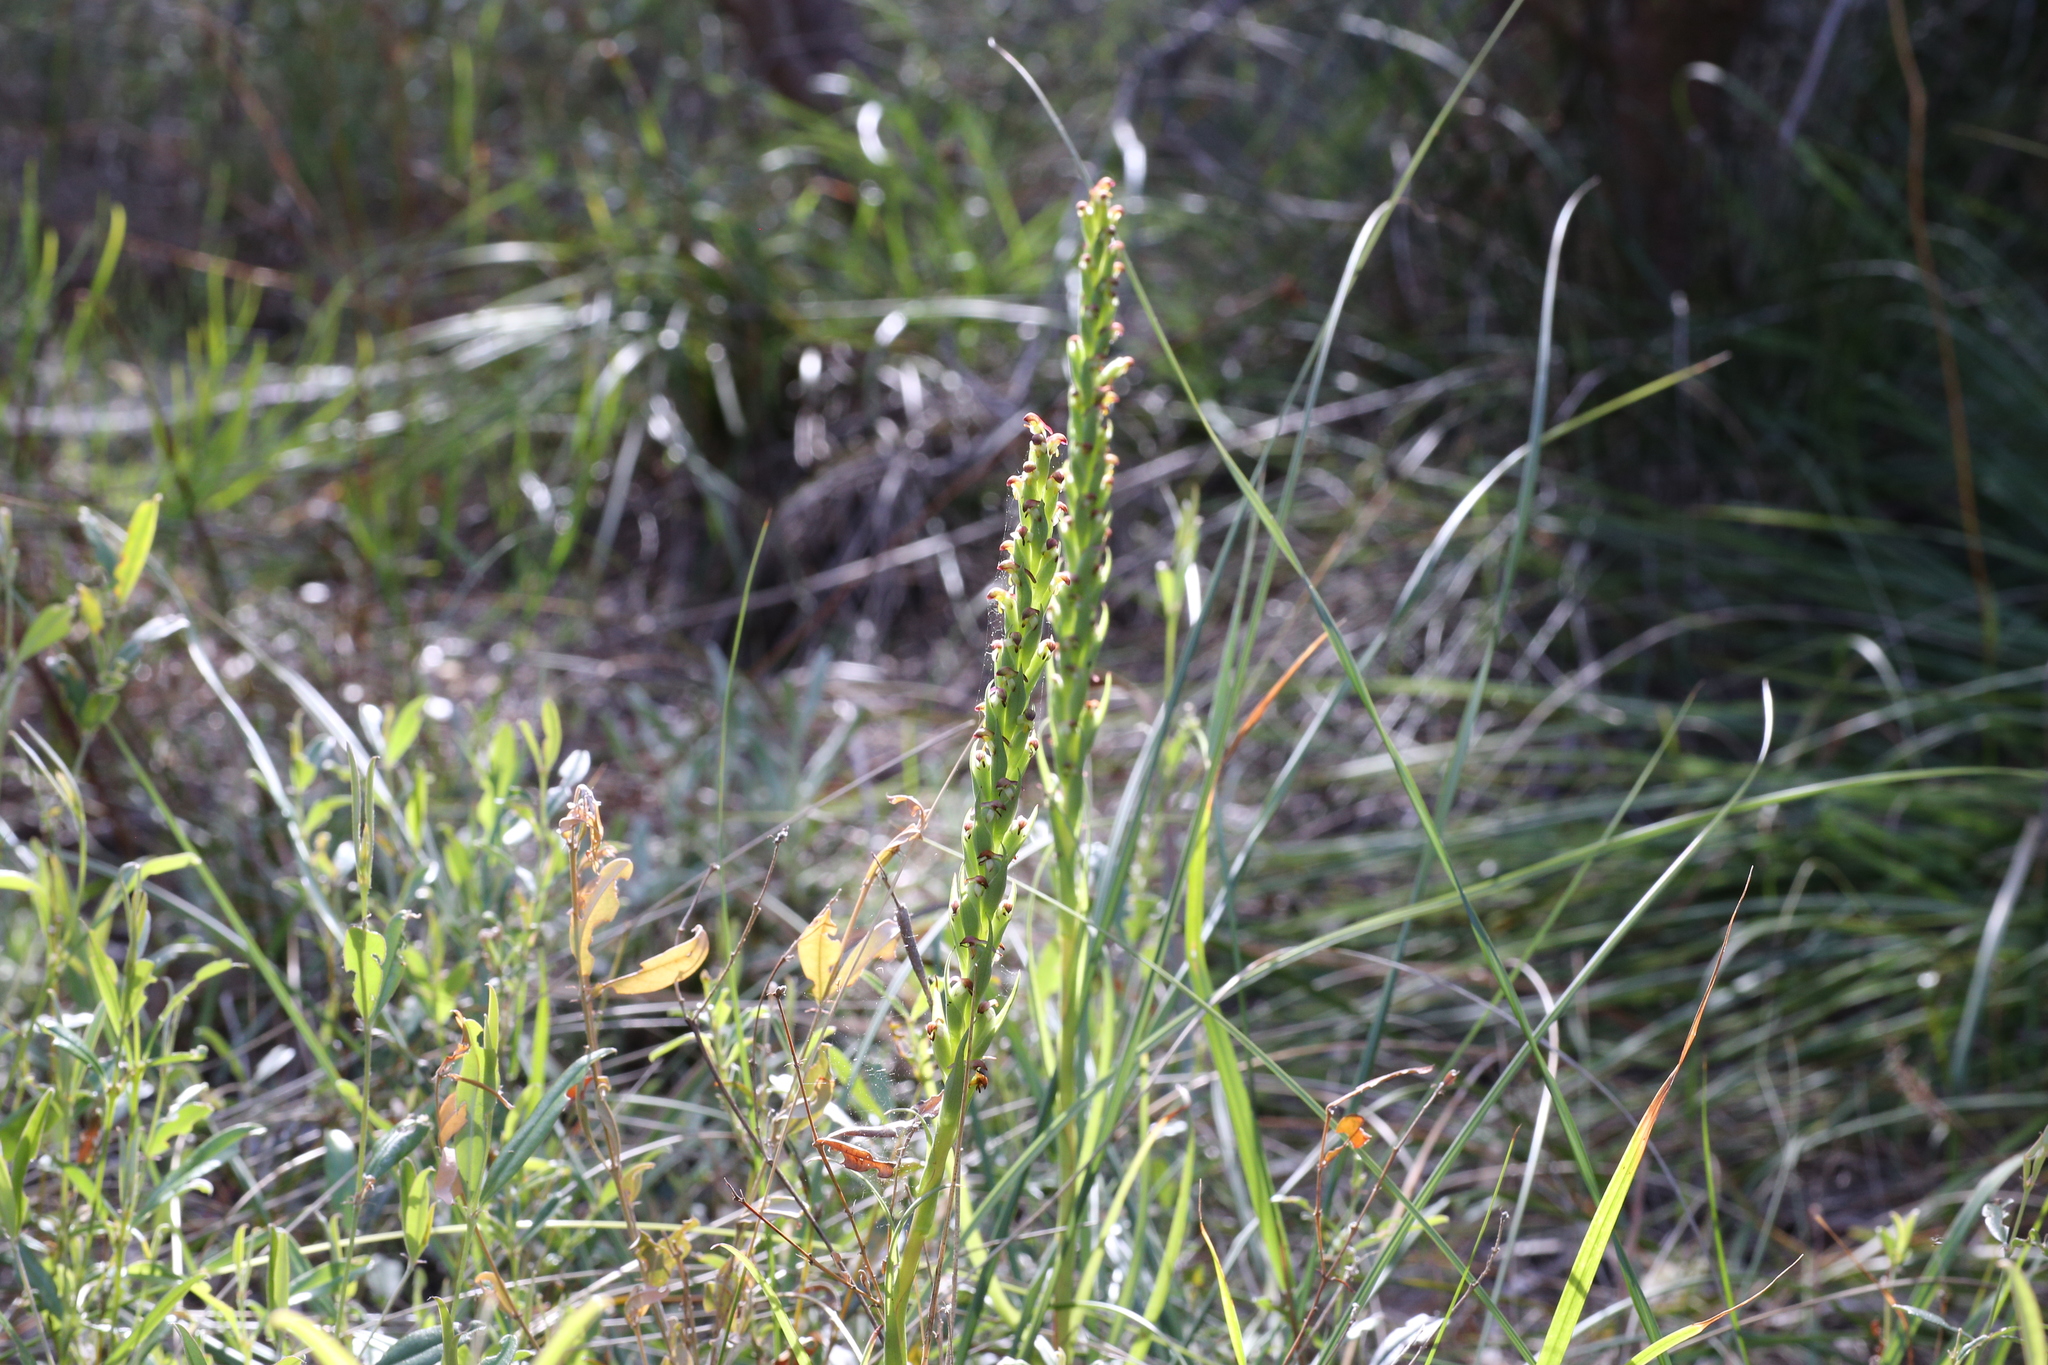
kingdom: Plantae
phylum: Tracheophyta
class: Liliopsida
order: Asparagales
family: Orchidaceae
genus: Disa
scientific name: Disa bracteata
